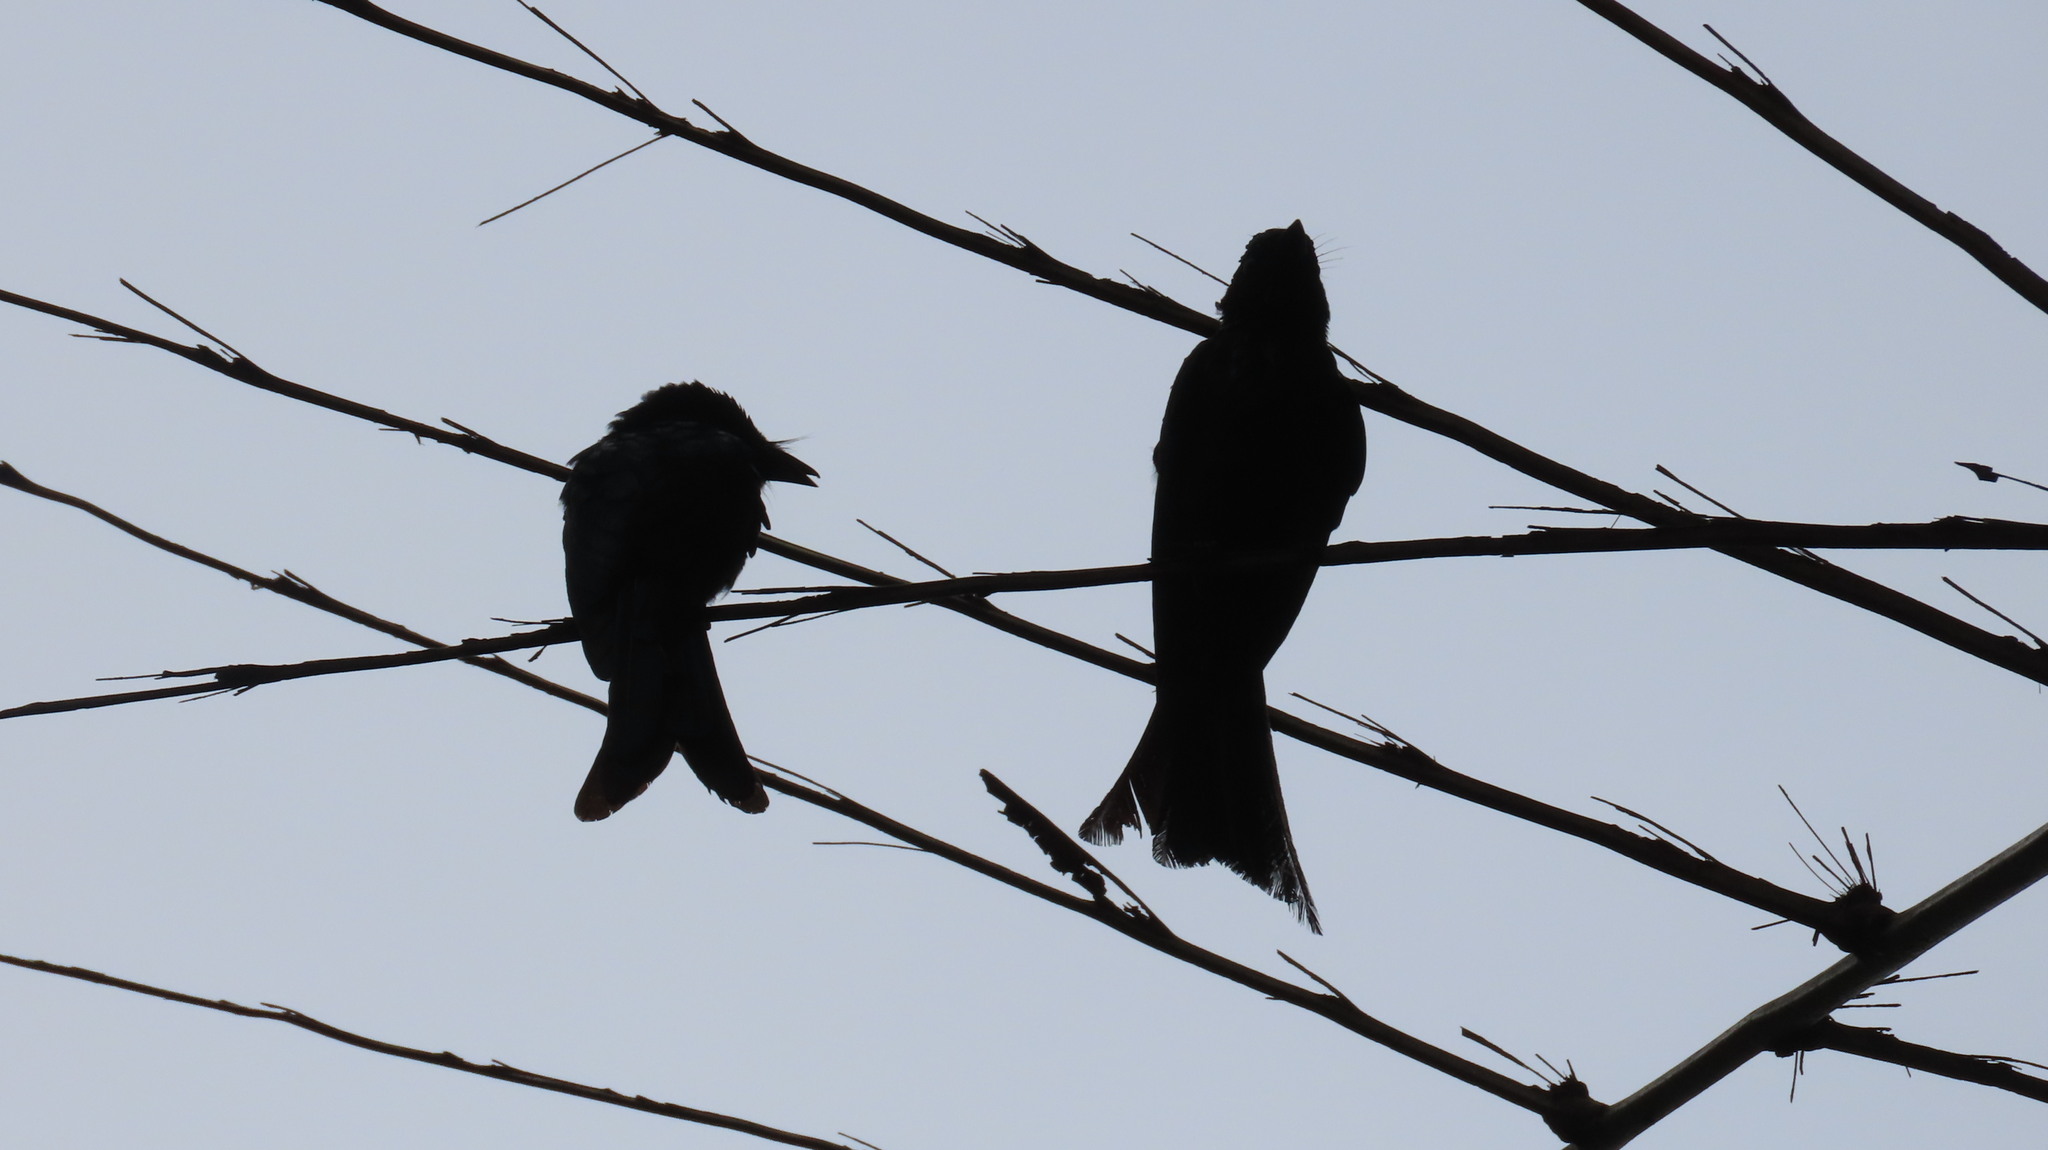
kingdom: Animalia
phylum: Chordata
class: Aves
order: Passeriformes
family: Dicruridae
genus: Dicrurus
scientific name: Dicrurus aeneus
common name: Bronzed drongo
